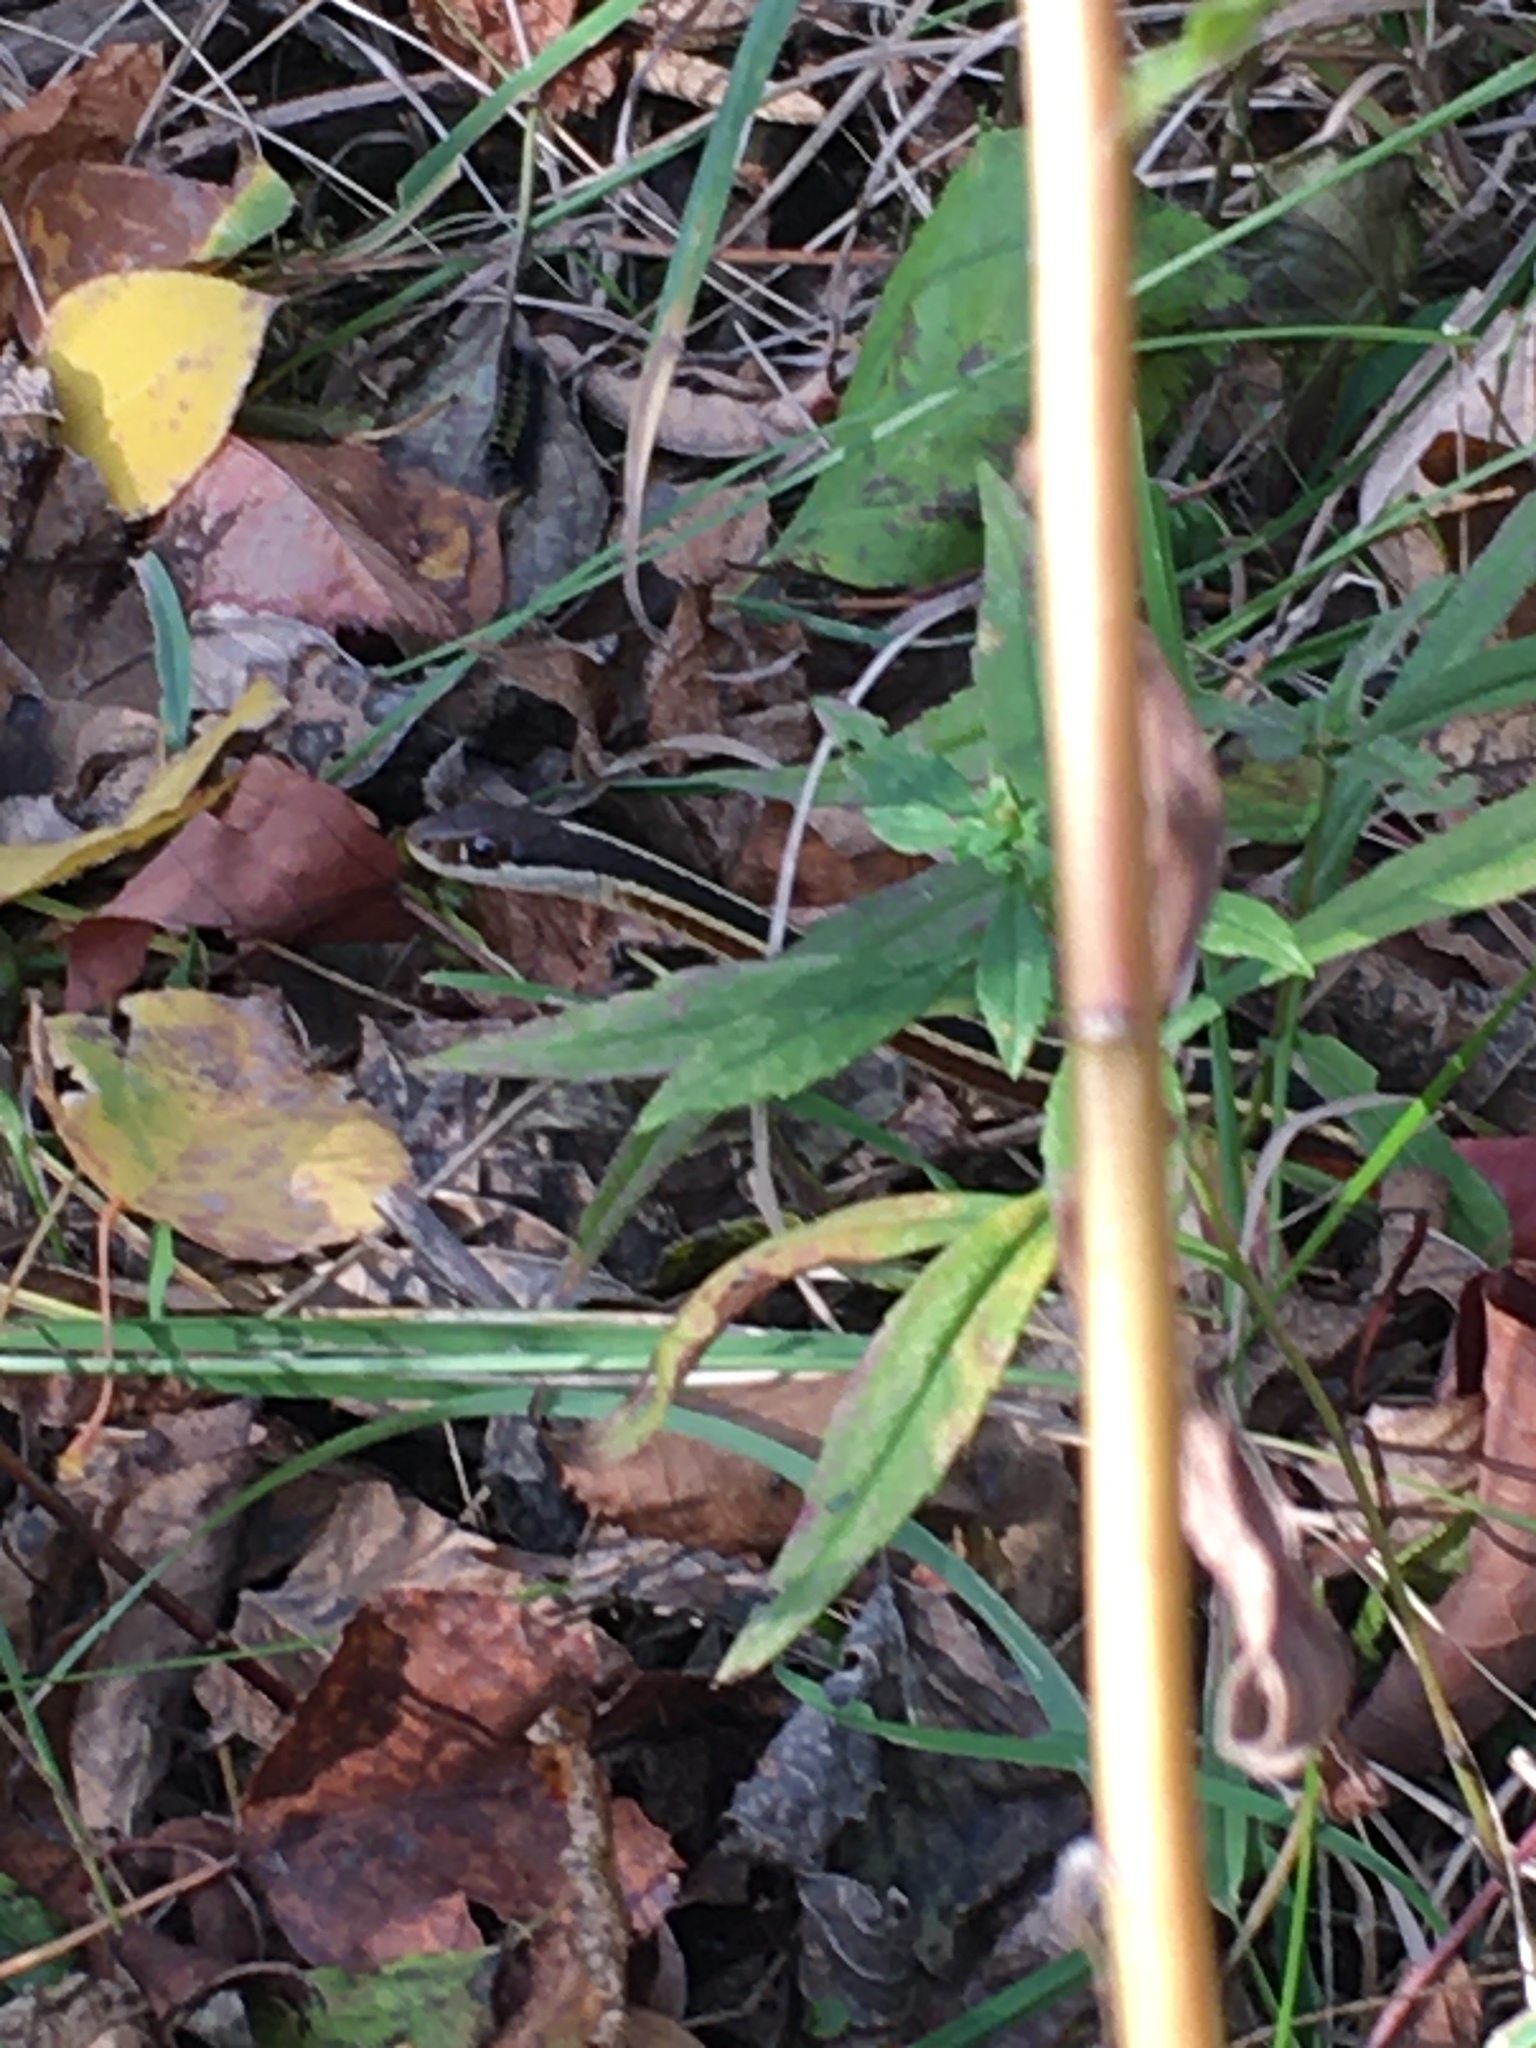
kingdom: Animalia
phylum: Chordata
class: Squamata
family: Colubridae
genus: Thamnophis
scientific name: Thamnophis saurita
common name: Eastern ribbonsnake
